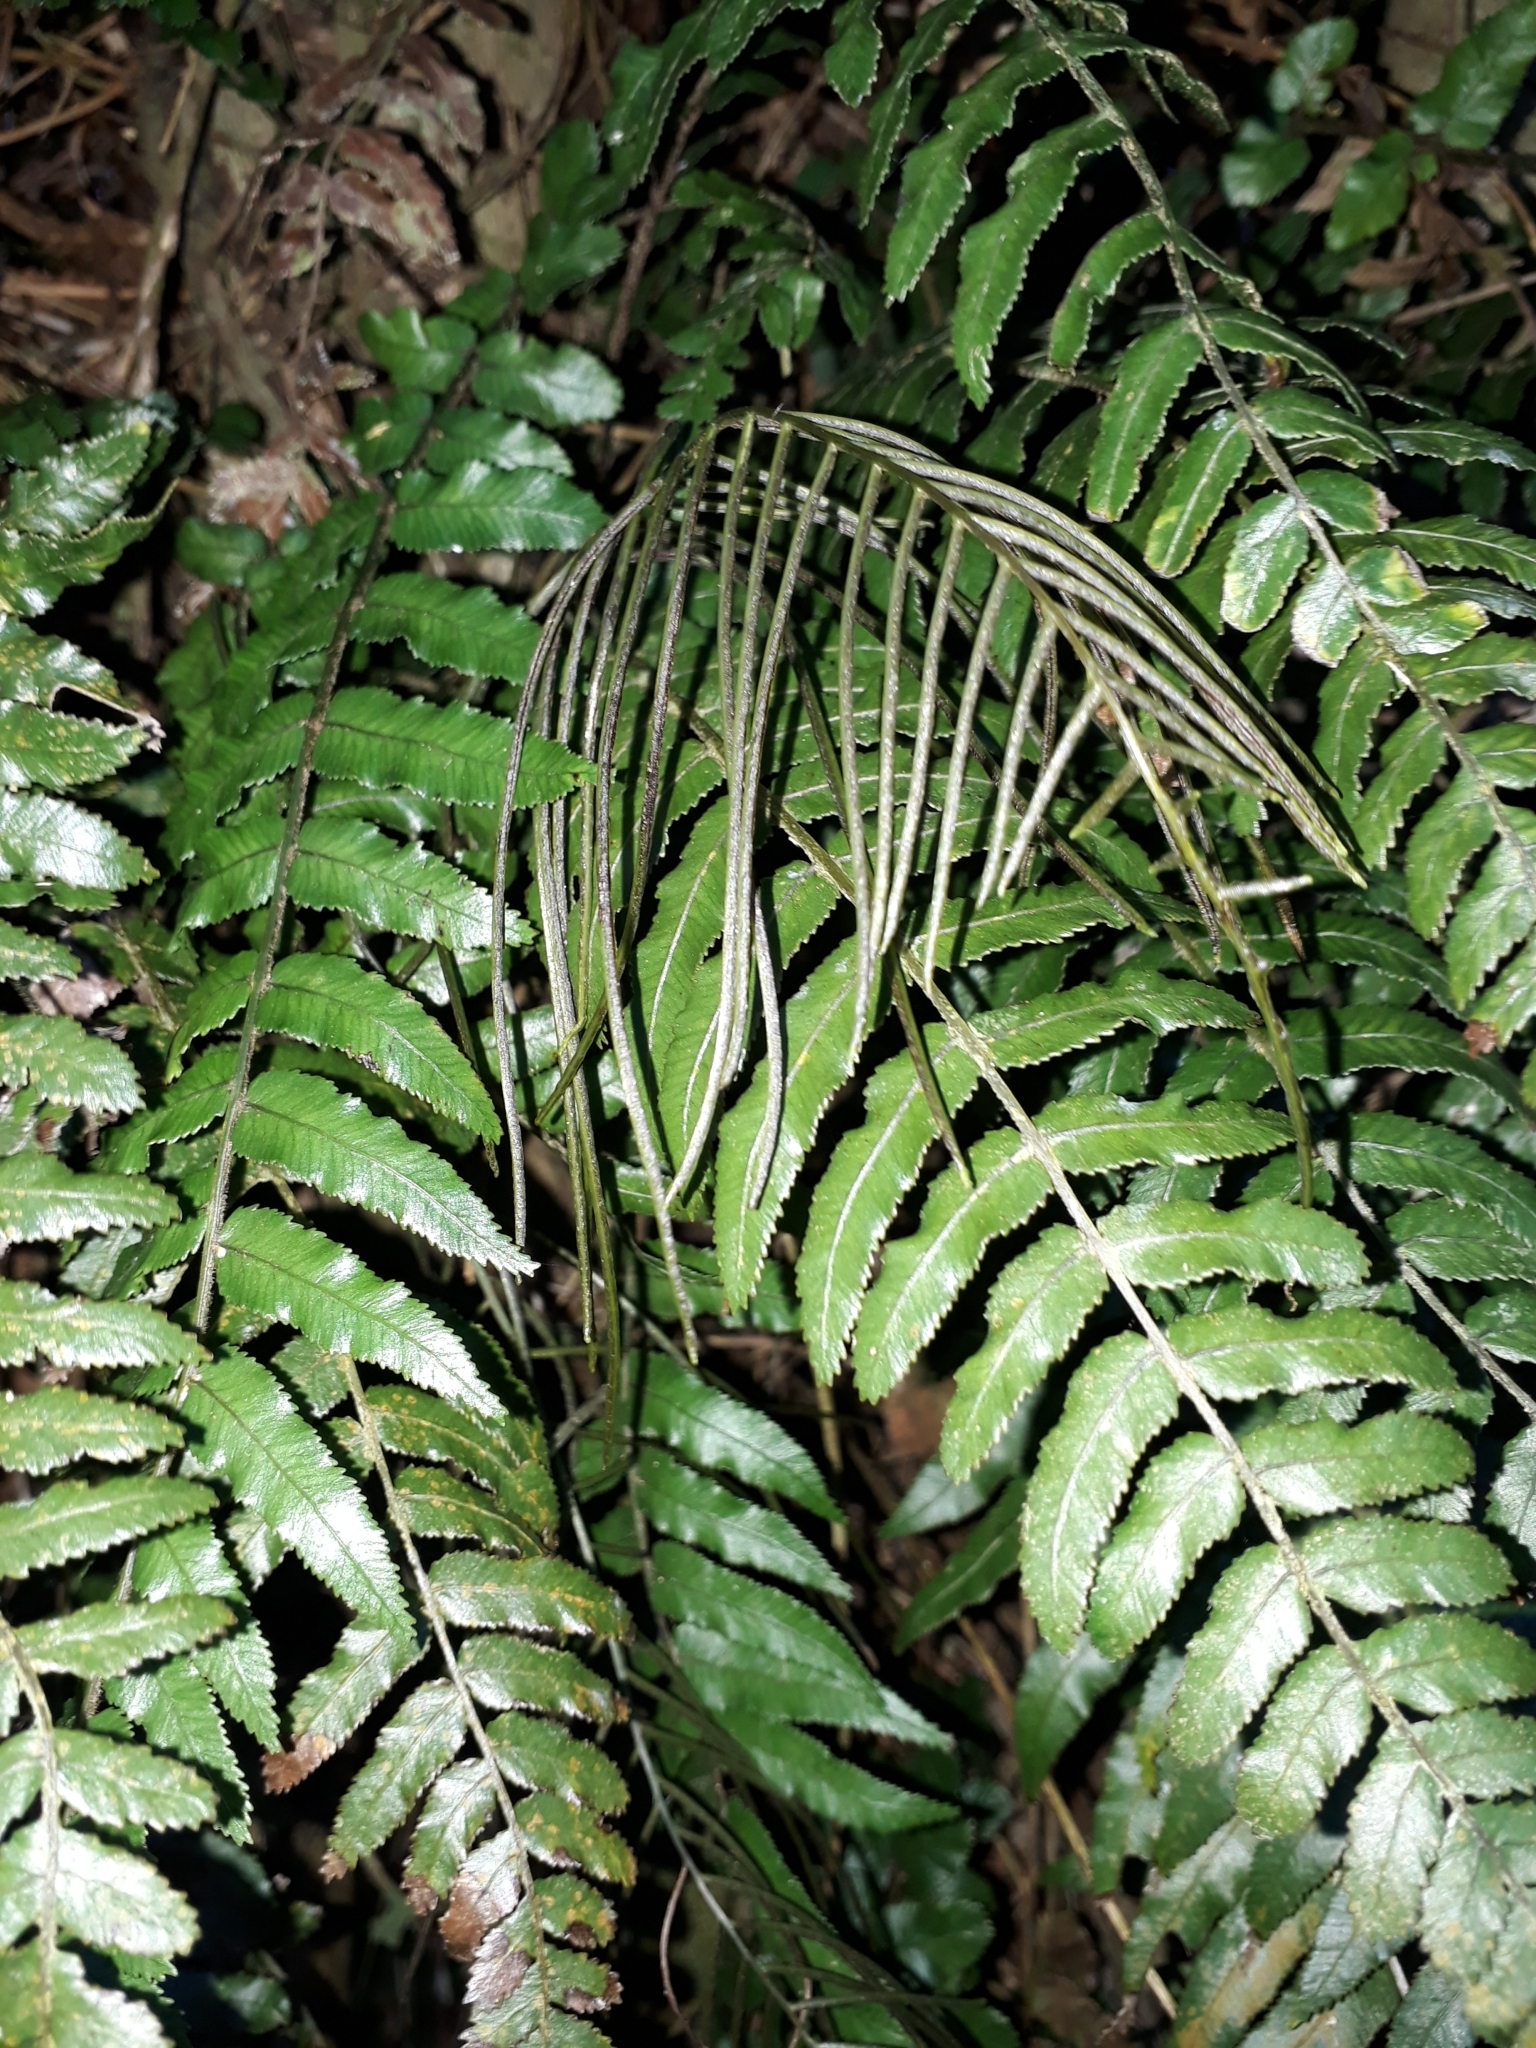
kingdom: Plantae
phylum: Tracheophyta
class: Polypodiopsida
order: Polypodiales
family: Blechnaceae
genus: Icarus
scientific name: Icarus filiformis
